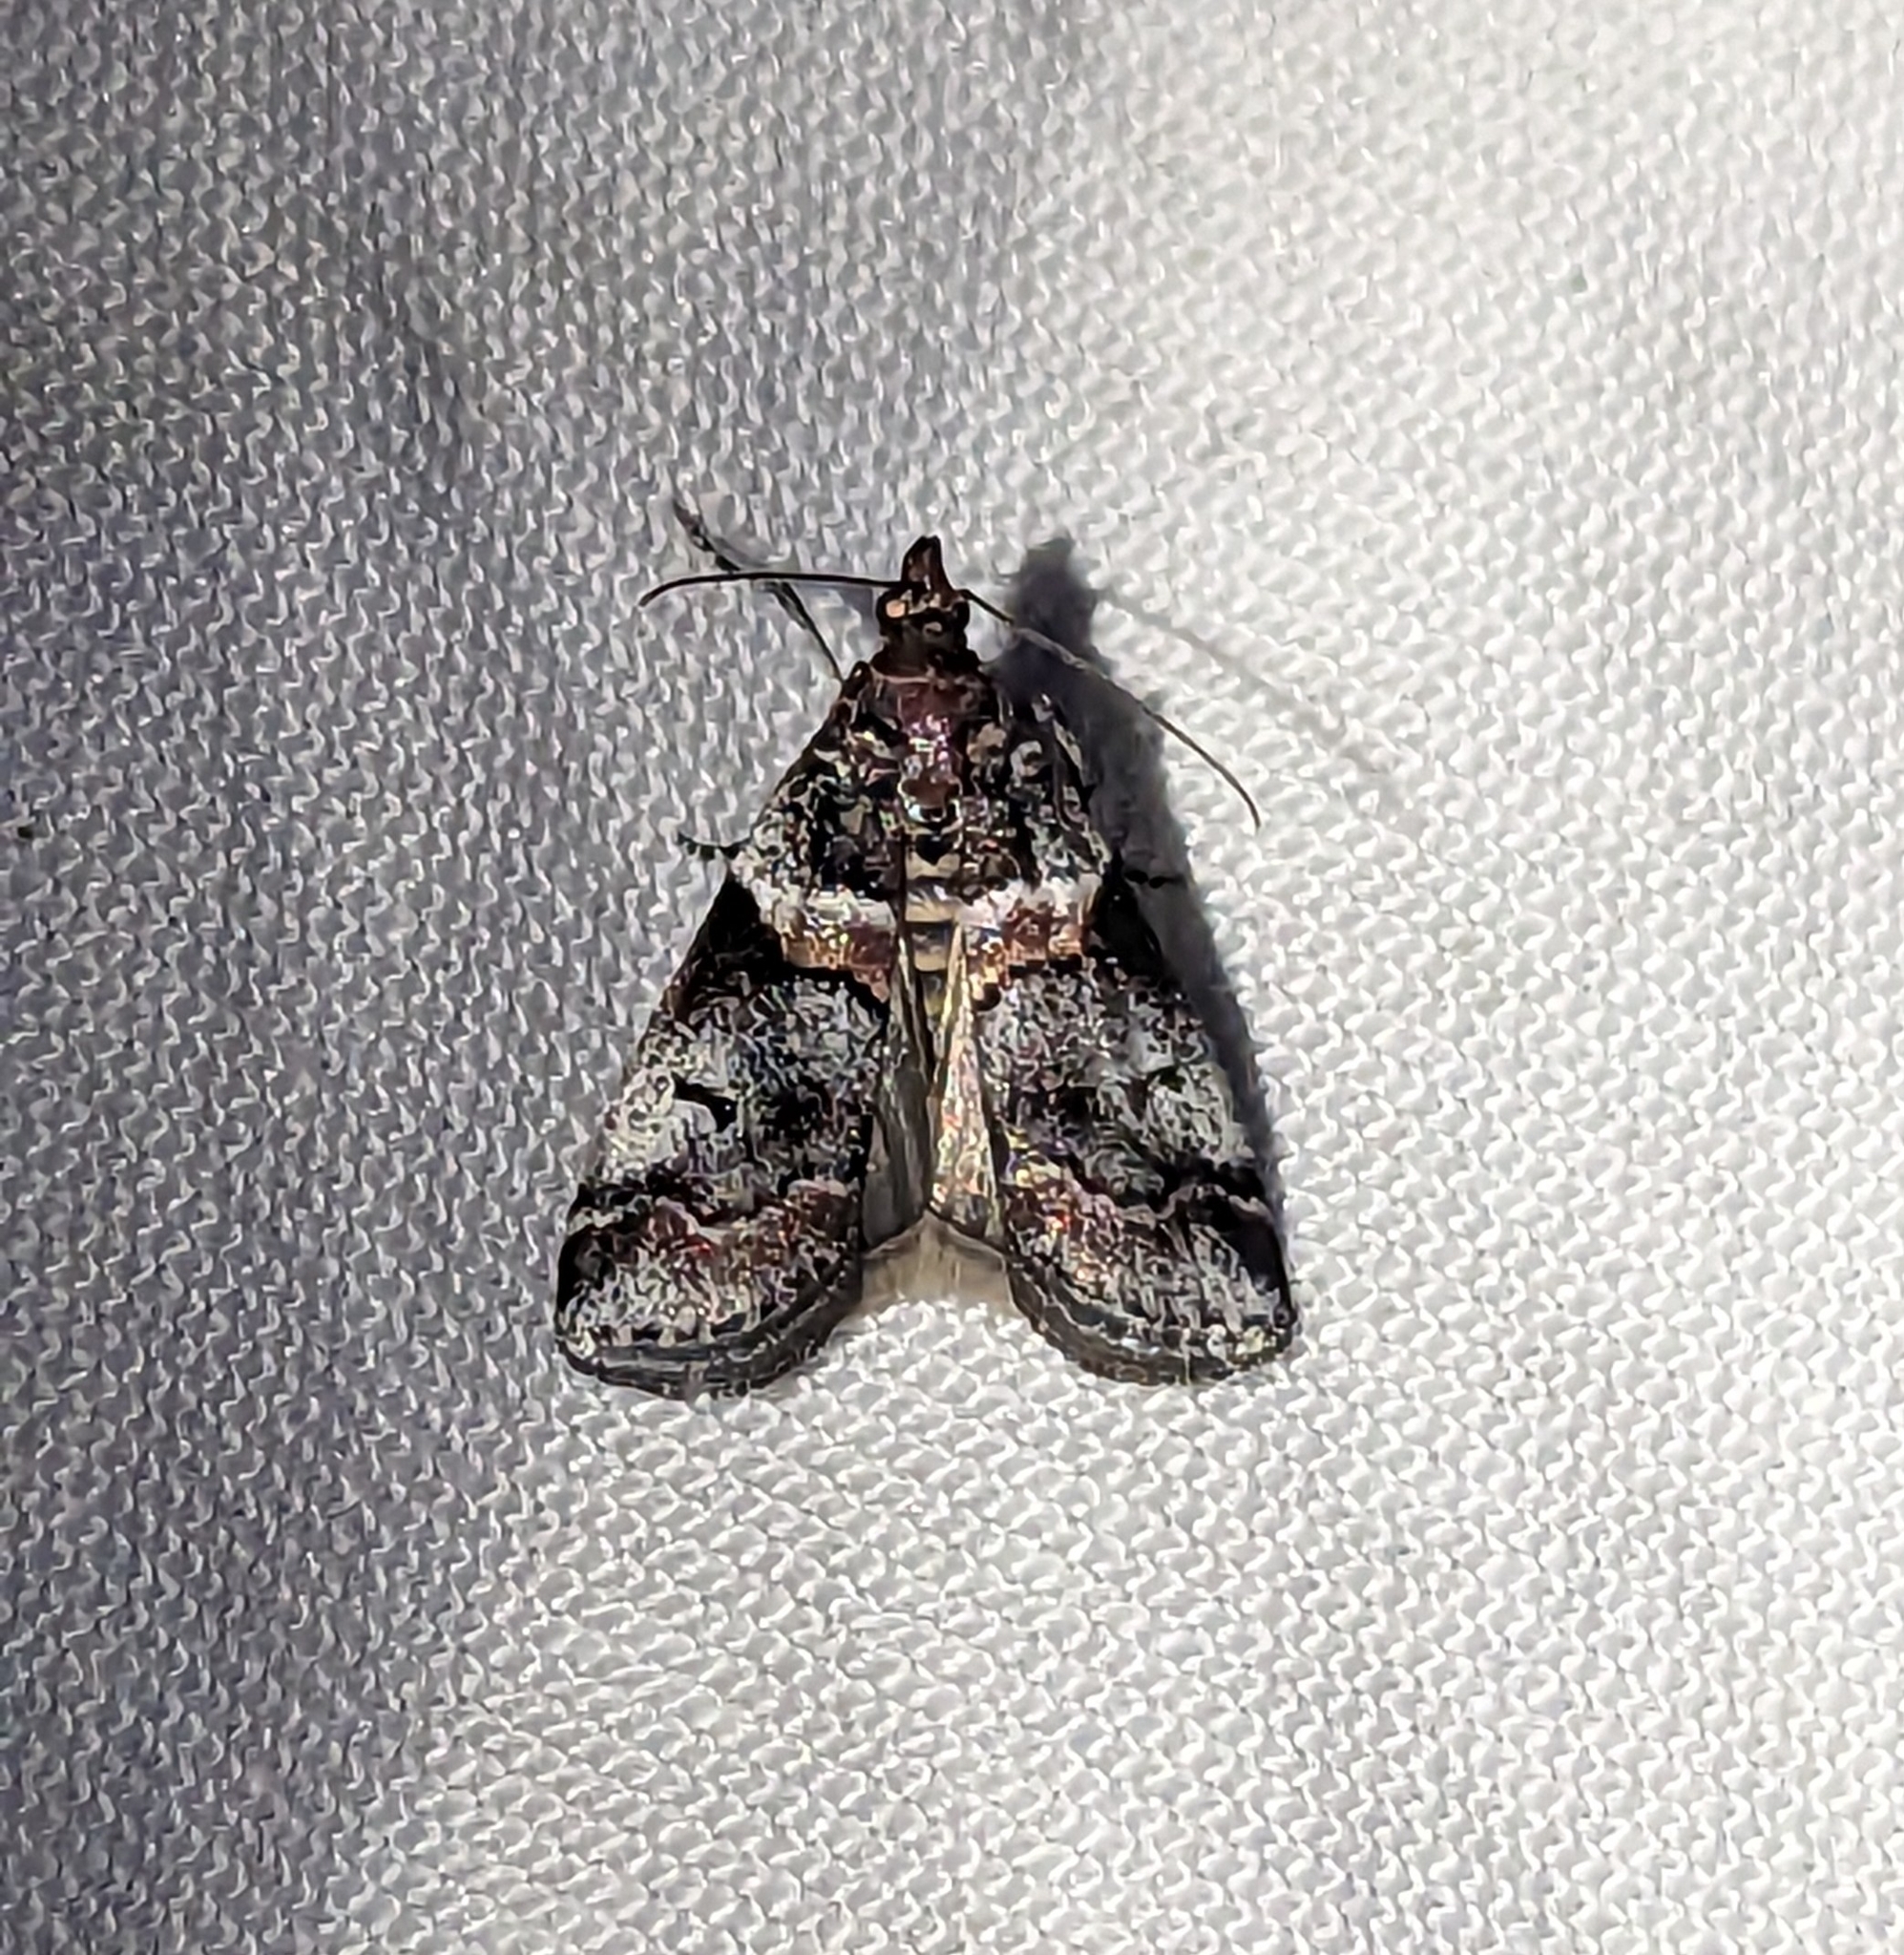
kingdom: Animalia
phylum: Arthropoda
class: Insecta
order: Lepidoptera
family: Pyralidae
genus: Acrobasis
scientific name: Acrobasis tricolorella
